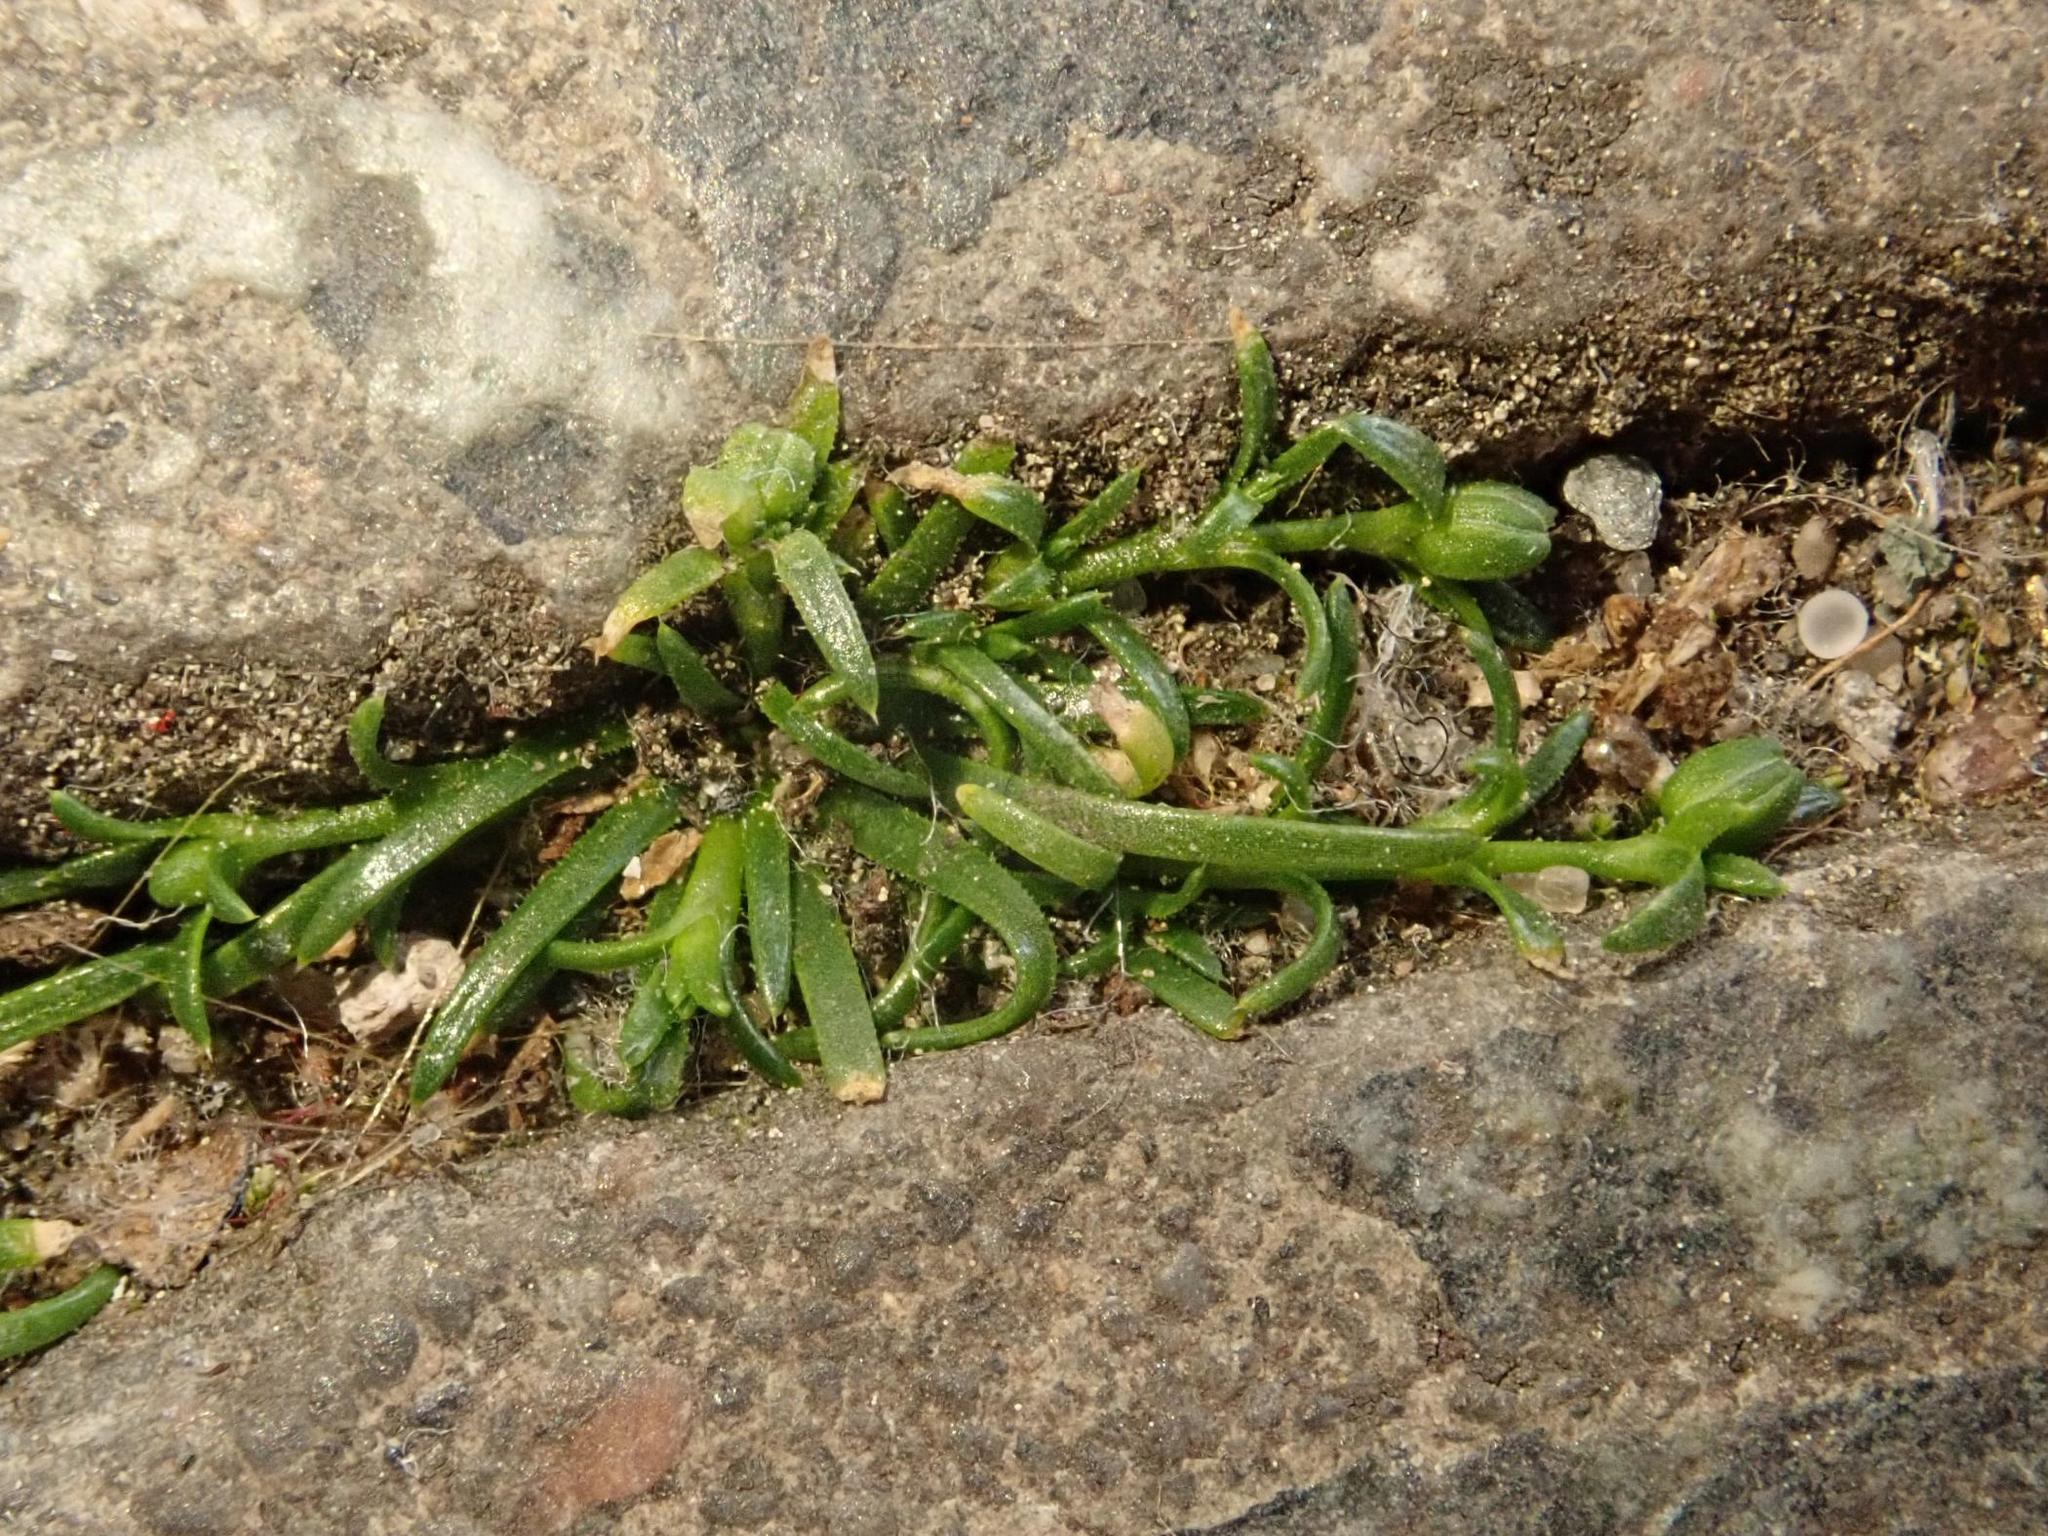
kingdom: Plantae
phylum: Tracheophyta
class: Magnoliopsida
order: Caryophyllales
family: Caryophyllaceae
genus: Sagina
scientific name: Sagina procumbens
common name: Procumbent pearlwort
